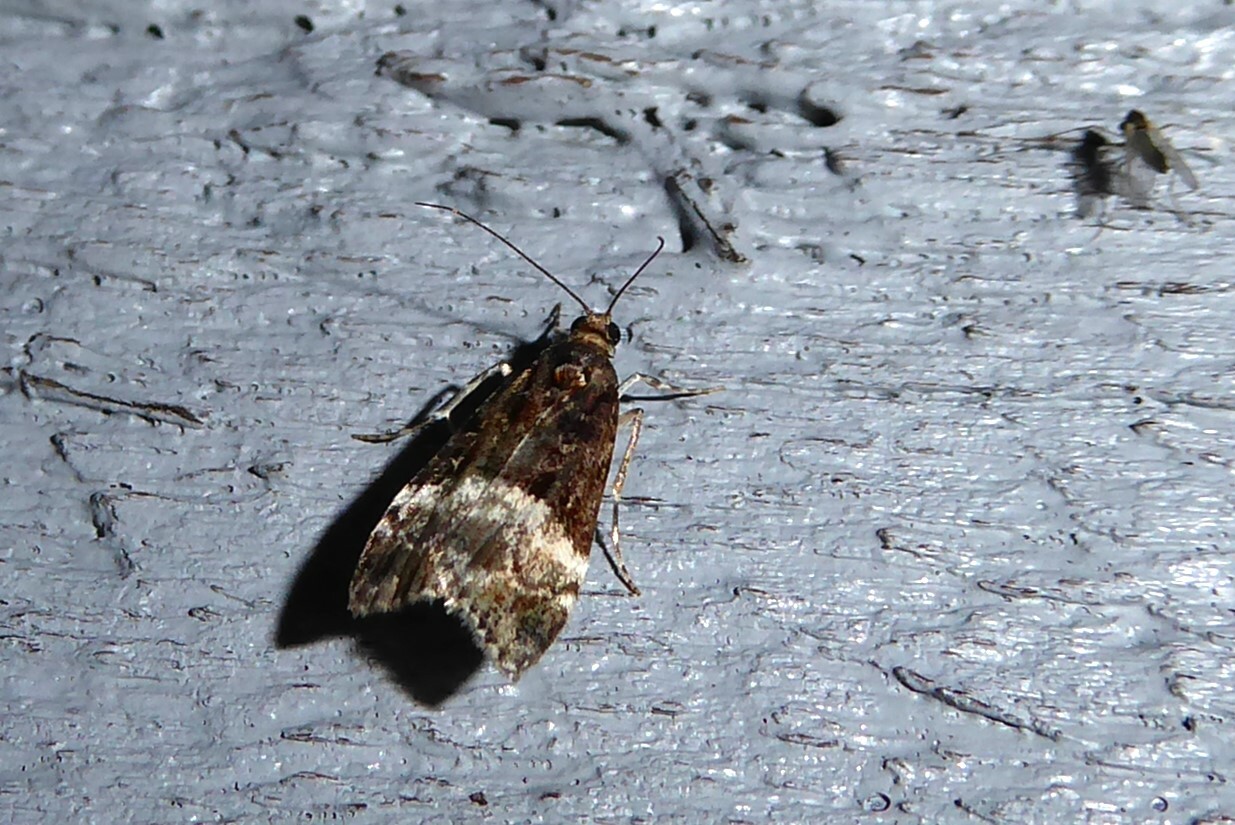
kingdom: Animalia
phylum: Arthropoda
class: Insecta
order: Lepidoptera
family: Crambidae
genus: Scoparia
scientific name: Scoparia minusculalis
